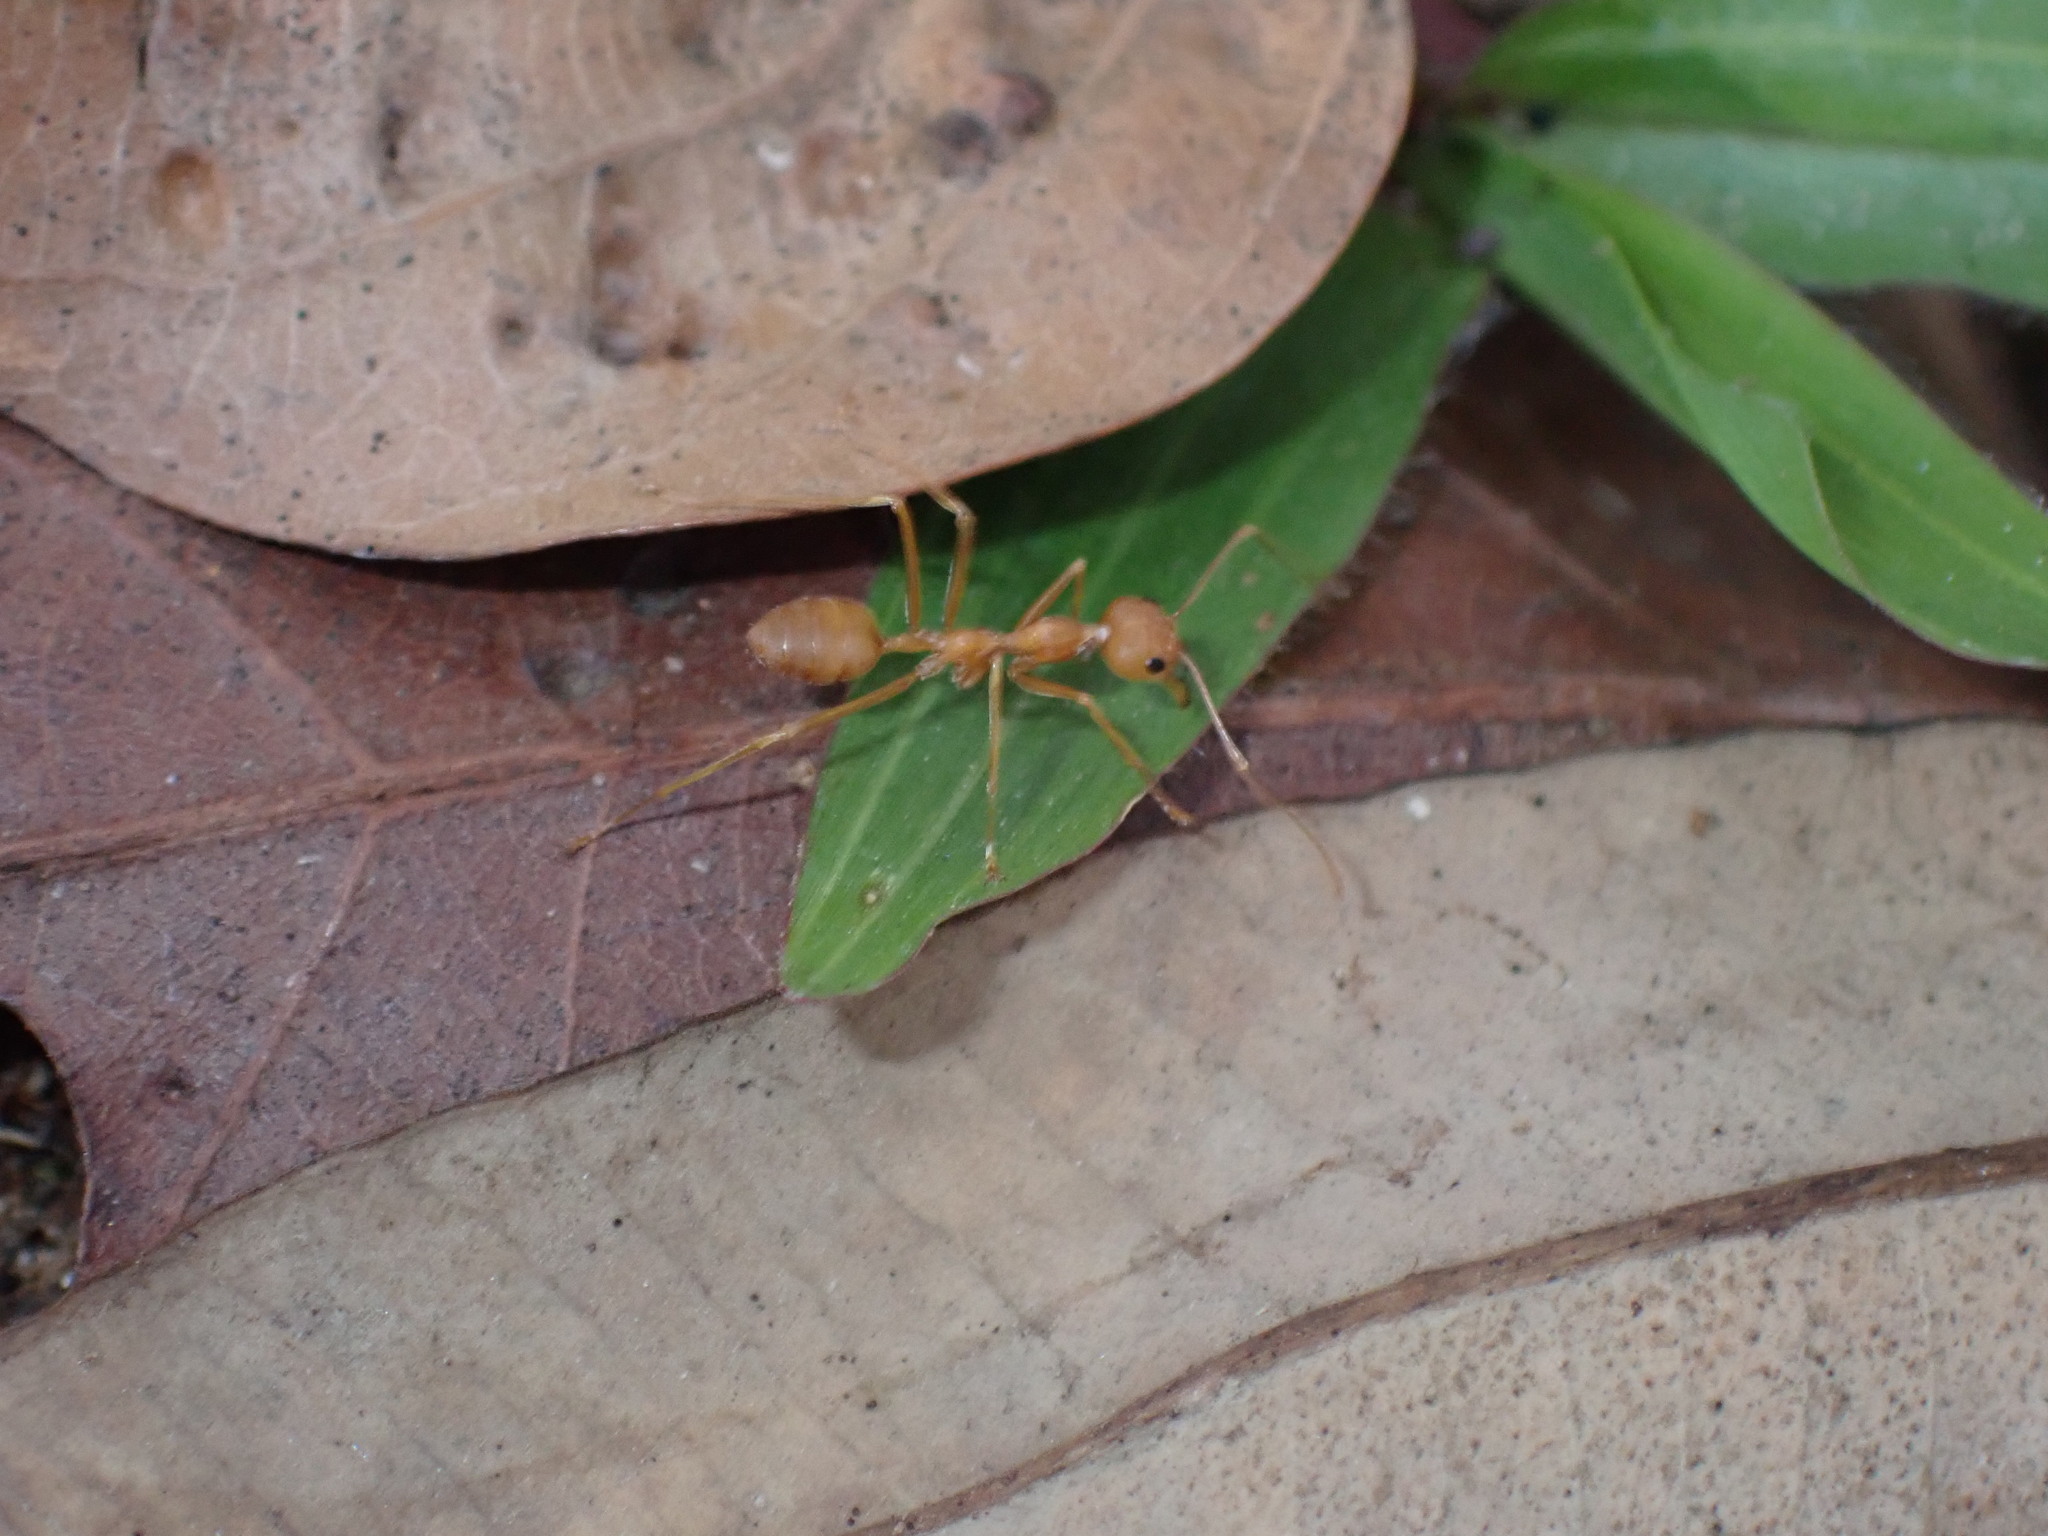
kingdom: Animalia
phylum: Arthropoda
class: Insecta
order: Hymenoptera
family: Formicidae
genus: Oecophylla
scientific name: Oecophylla smaragdina
